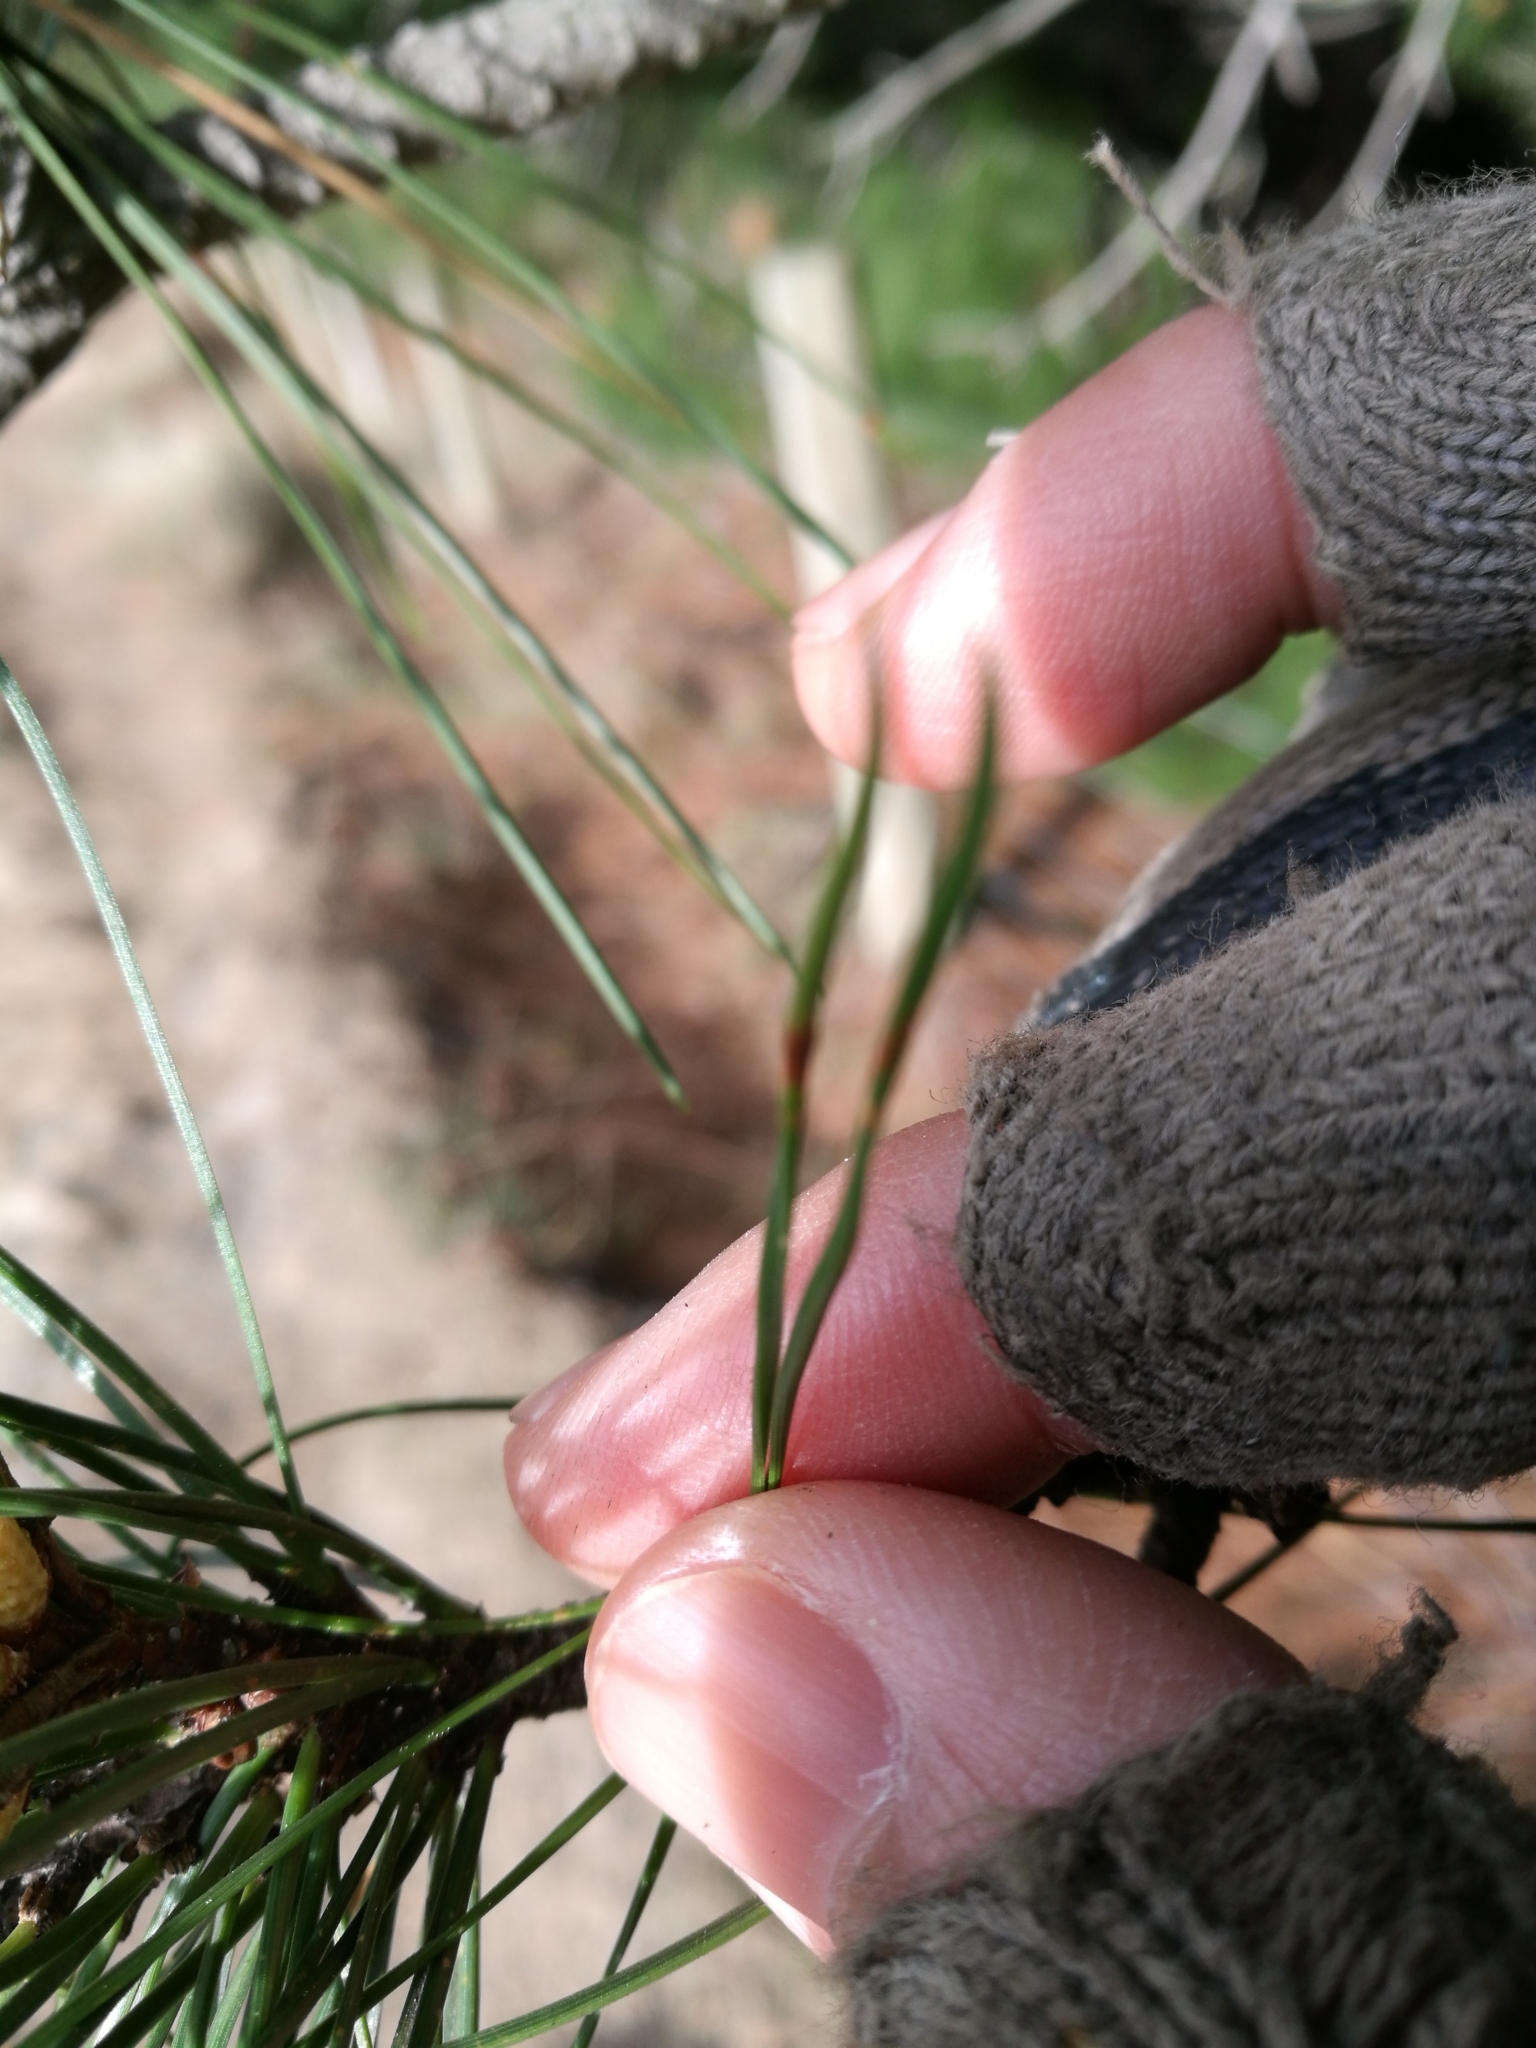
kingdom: Plantae
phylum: Tracheophyta
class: Pinopsida
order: Pinales
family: Pinaceae
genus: Pinus
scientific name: Pinus radiata
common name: Monterey pine
